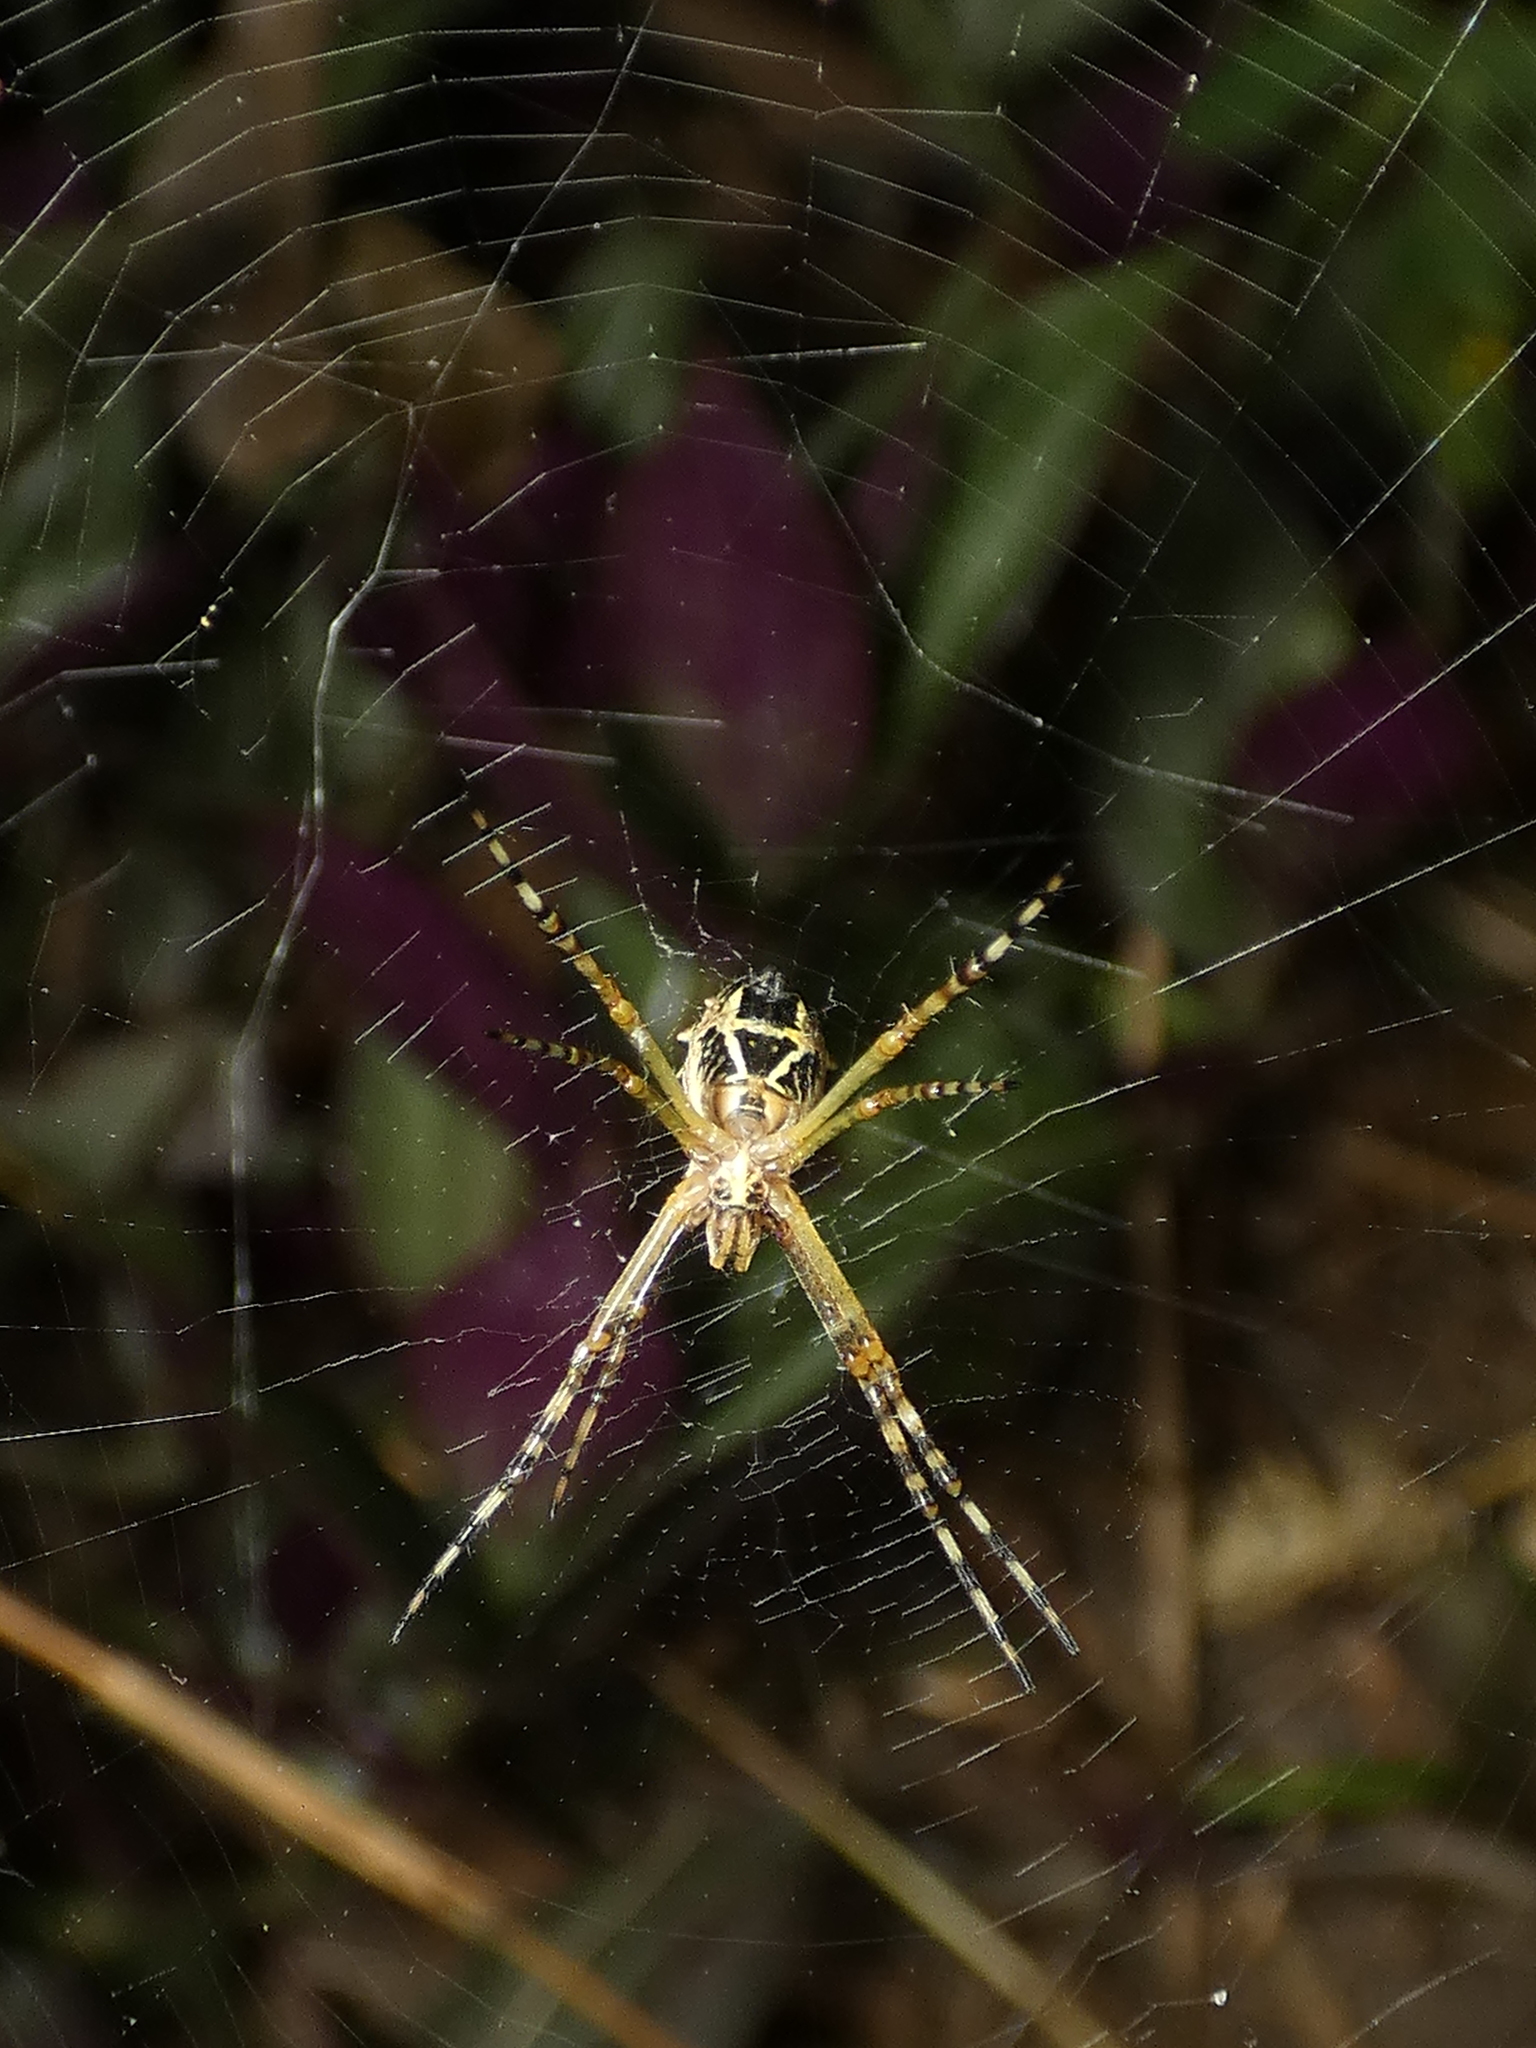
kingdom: Animalia
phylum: Arthropoda
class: Arachnida
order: Araneae
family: Araneidae
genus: Argiope
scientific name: Argiope argentata
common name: Orb weavers
